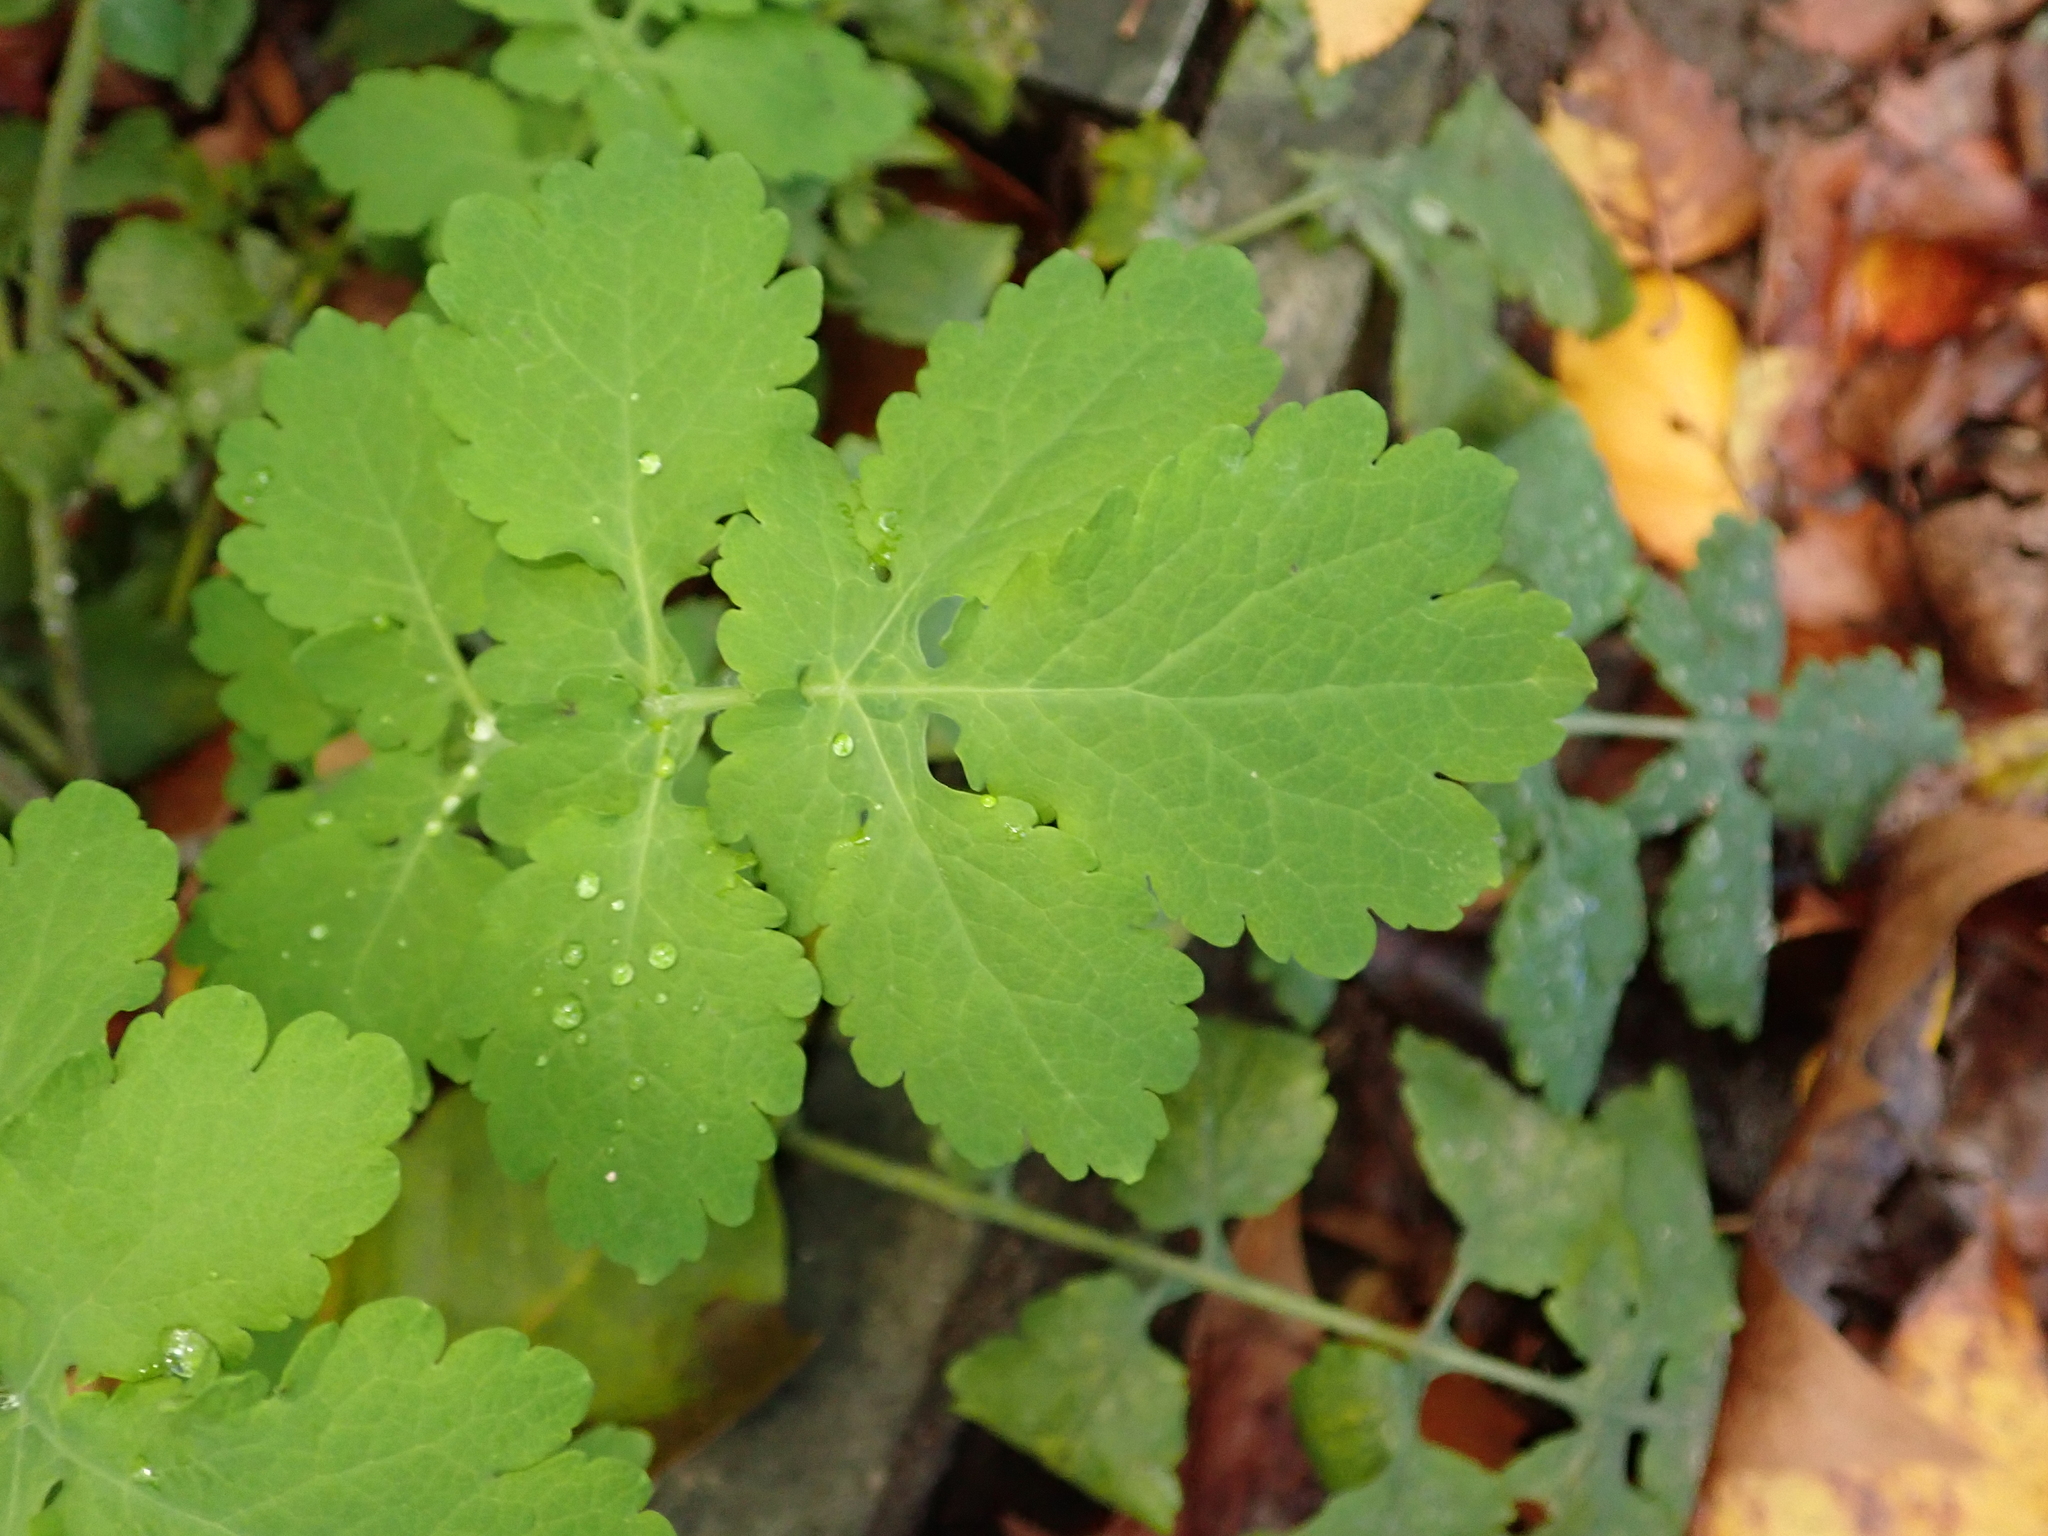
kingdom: Plantae
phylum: Tracheophyta
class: Magnoliopsida
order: Ranunculales
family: Papaveraceae
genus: Chelidonium
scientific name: Chelidonium majus
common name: Greater celandine
